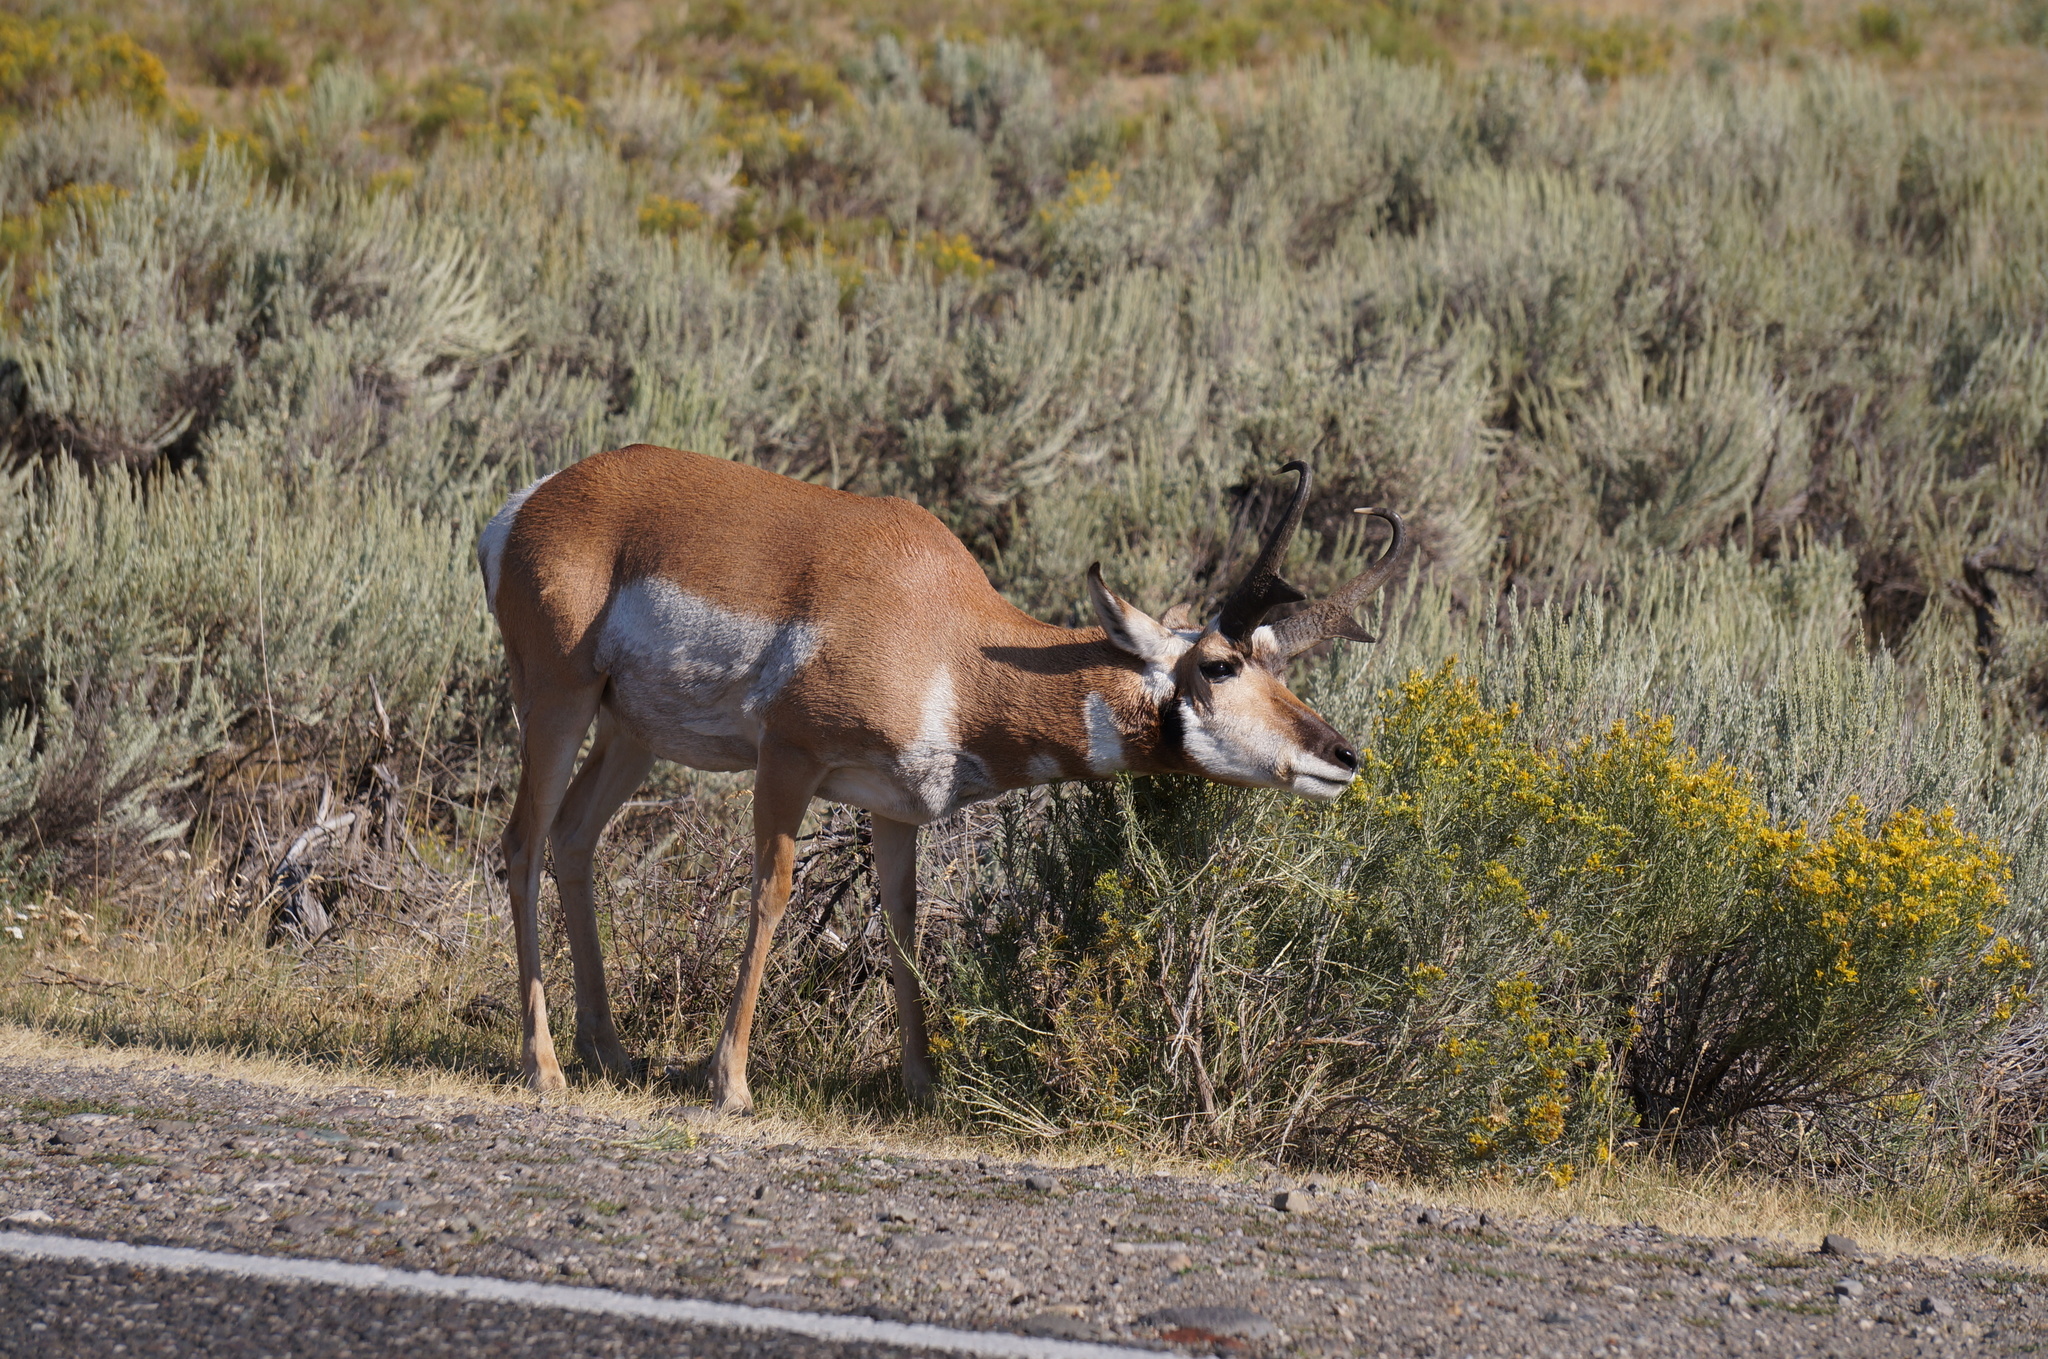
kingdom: Animalia
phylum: Chordata
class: Mammalia
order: Artiodactyla
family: Antilocapridae
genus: Antilocapra
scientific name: Antilocapra americana
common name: Pronghorn
